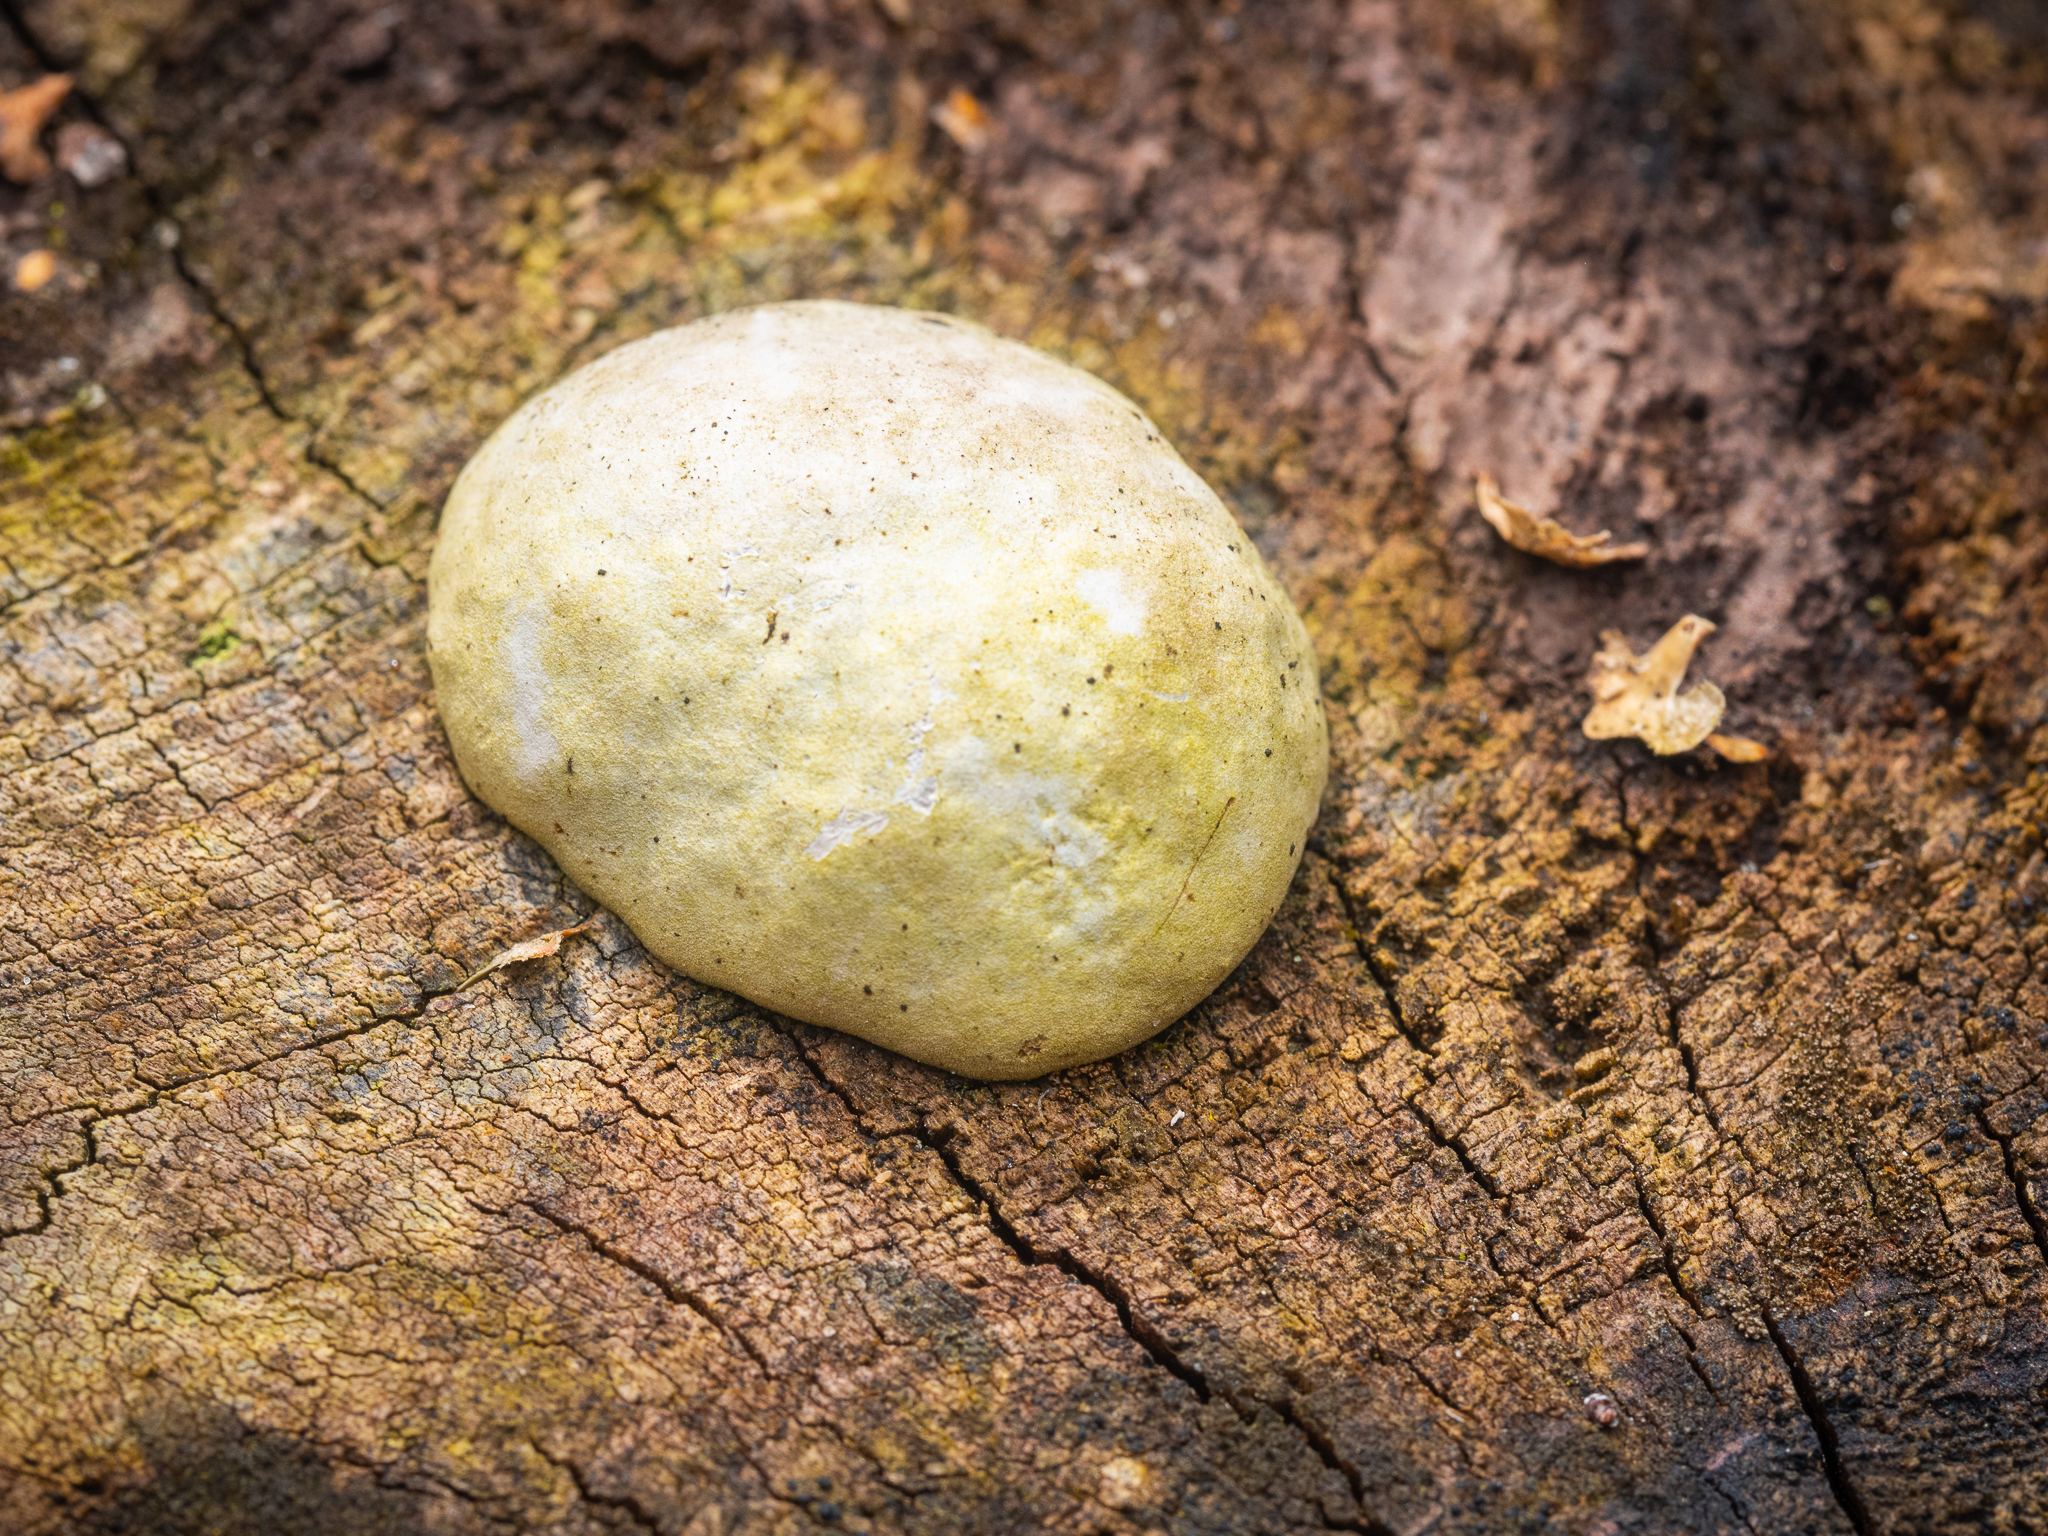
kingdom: Protozoa
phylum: Mycetozoa
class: Myxomycetes
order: Cribrariales
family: Tubiferaceae
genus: Reticularia
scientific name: Reticularia lycoperdon
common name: False puffball
